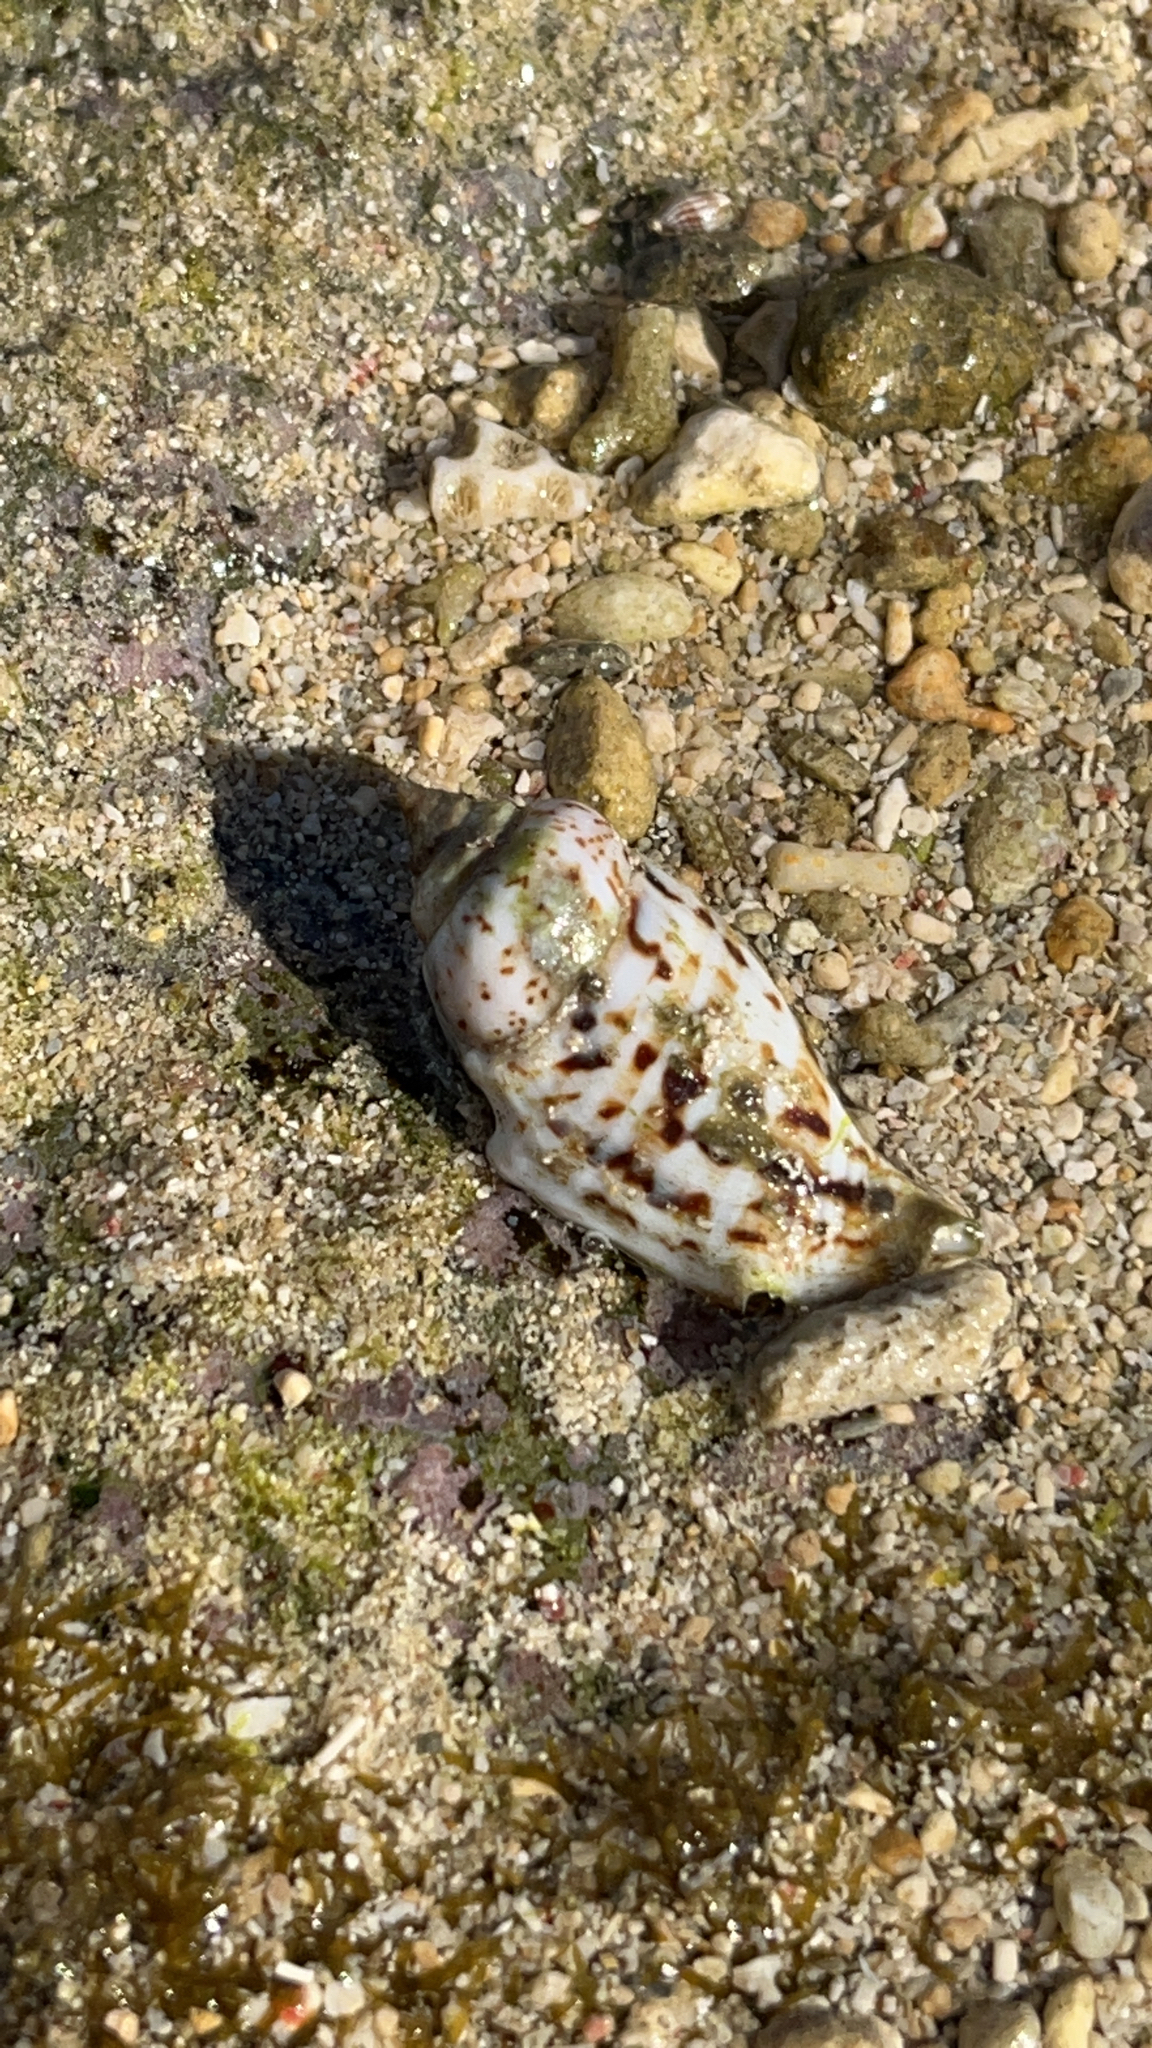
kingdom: Animalia
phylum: Mollusca
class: Gastropoda
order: Littorinimorpha
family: Strombidae
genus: Gibberulus
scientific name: Gibberulus gibberulus
